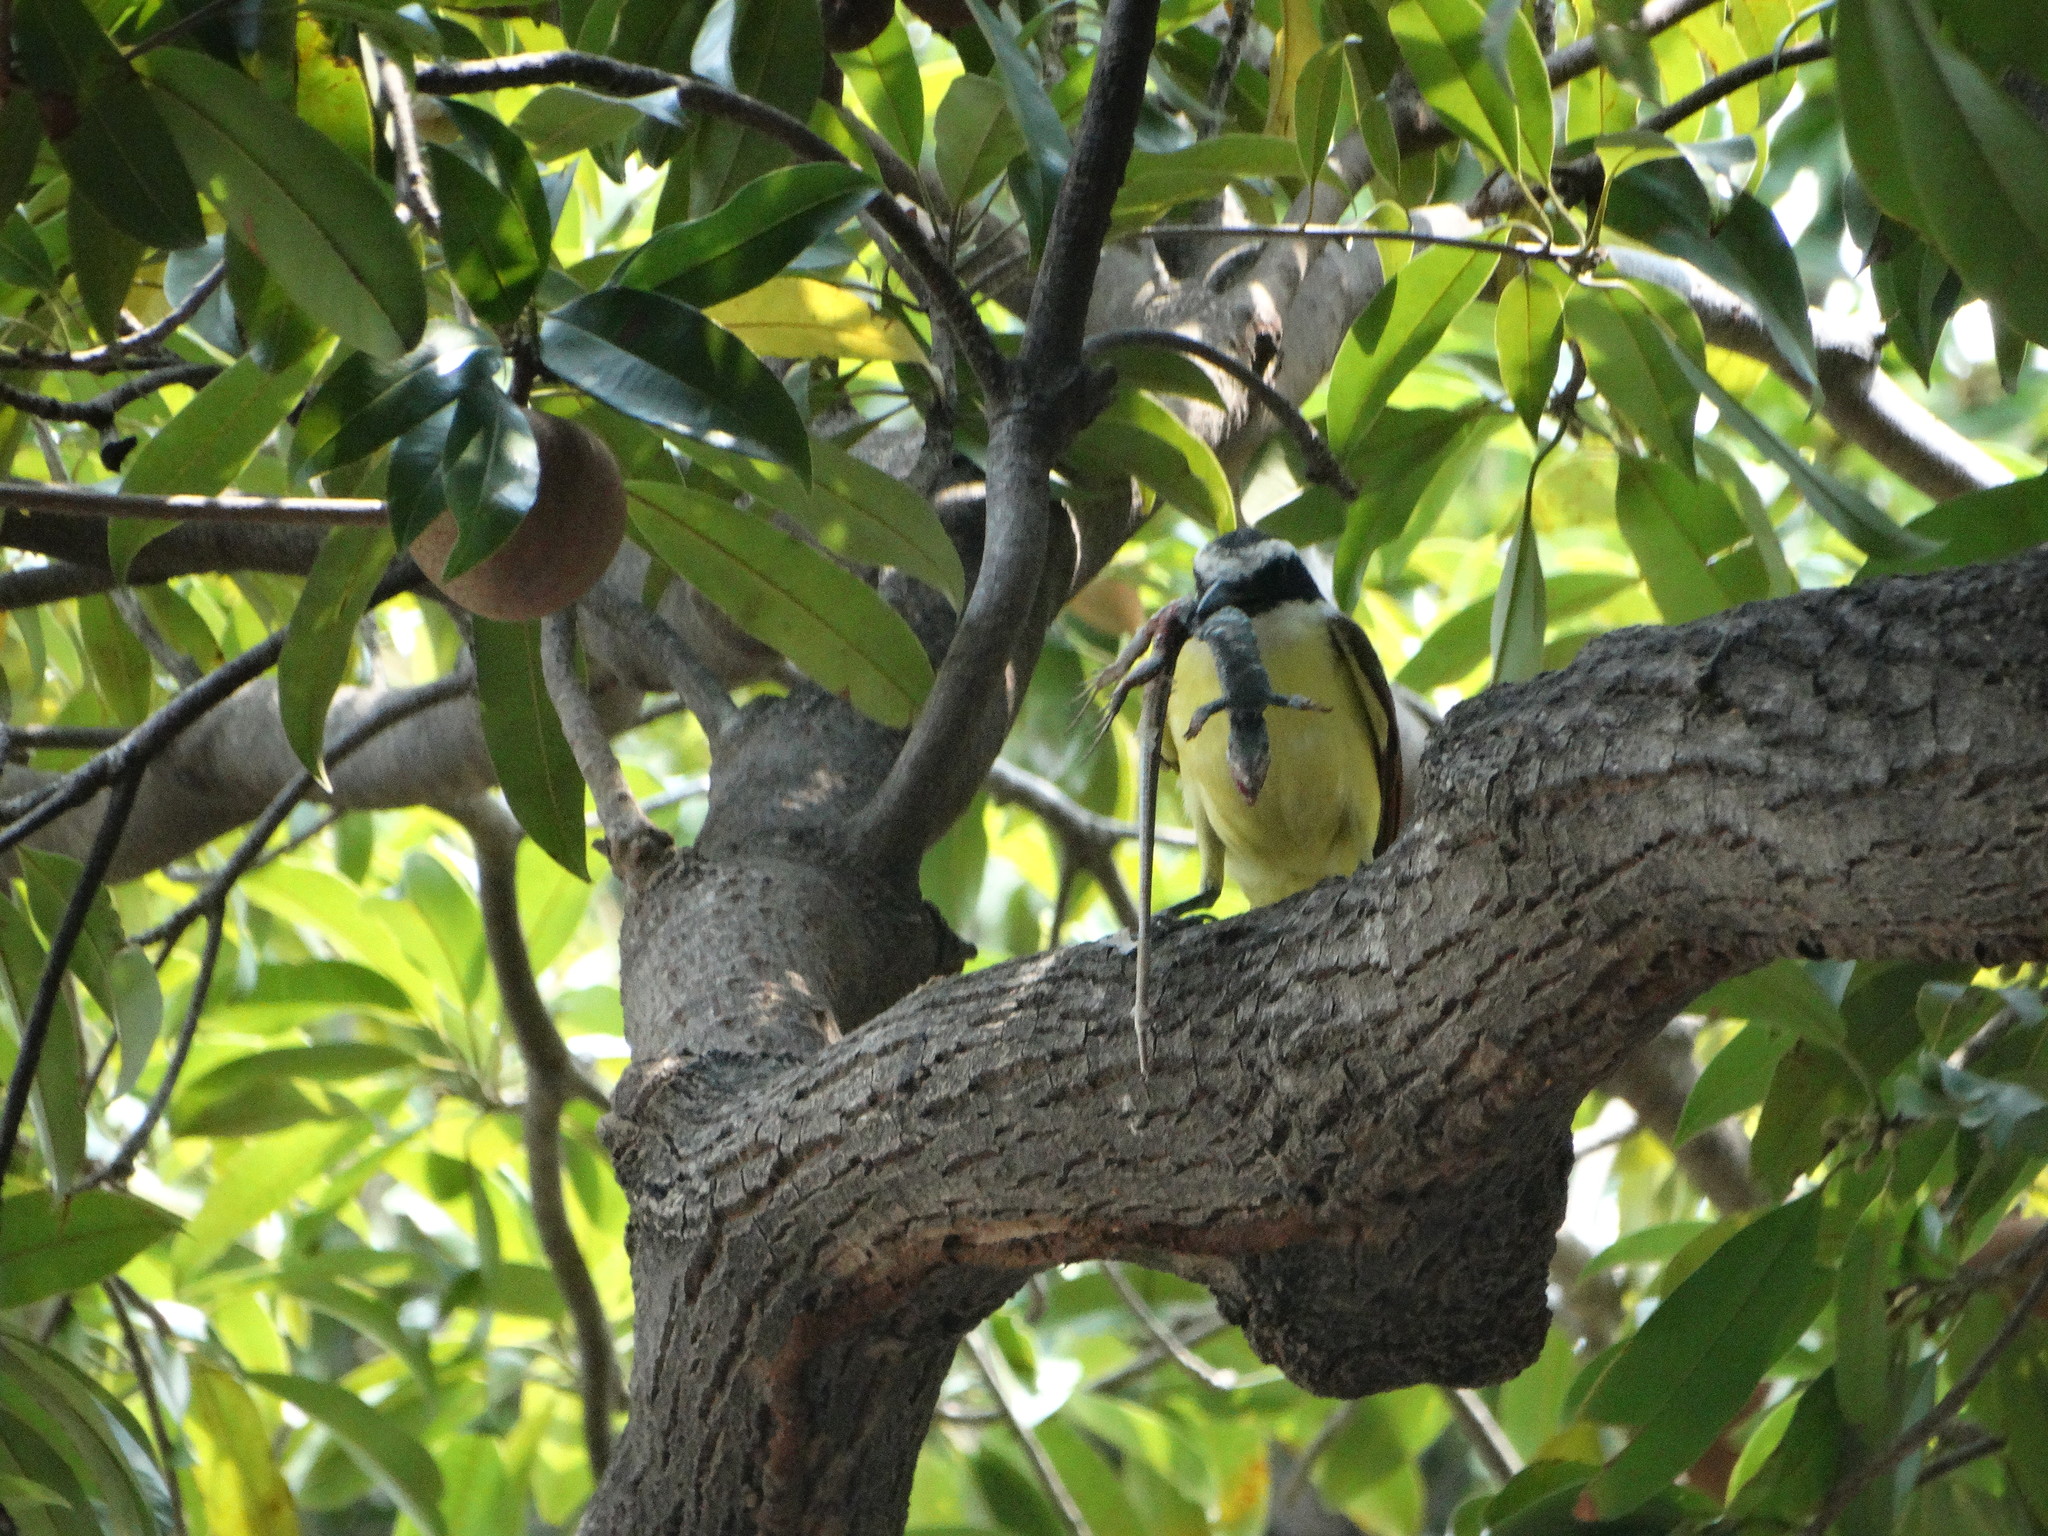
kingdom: Animalia
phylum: Chordata
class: Aves
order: Passeriformes
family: Tyrannidae
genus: Pitangus
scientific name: Pitangus sulphuratus
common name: Great kiskadee
